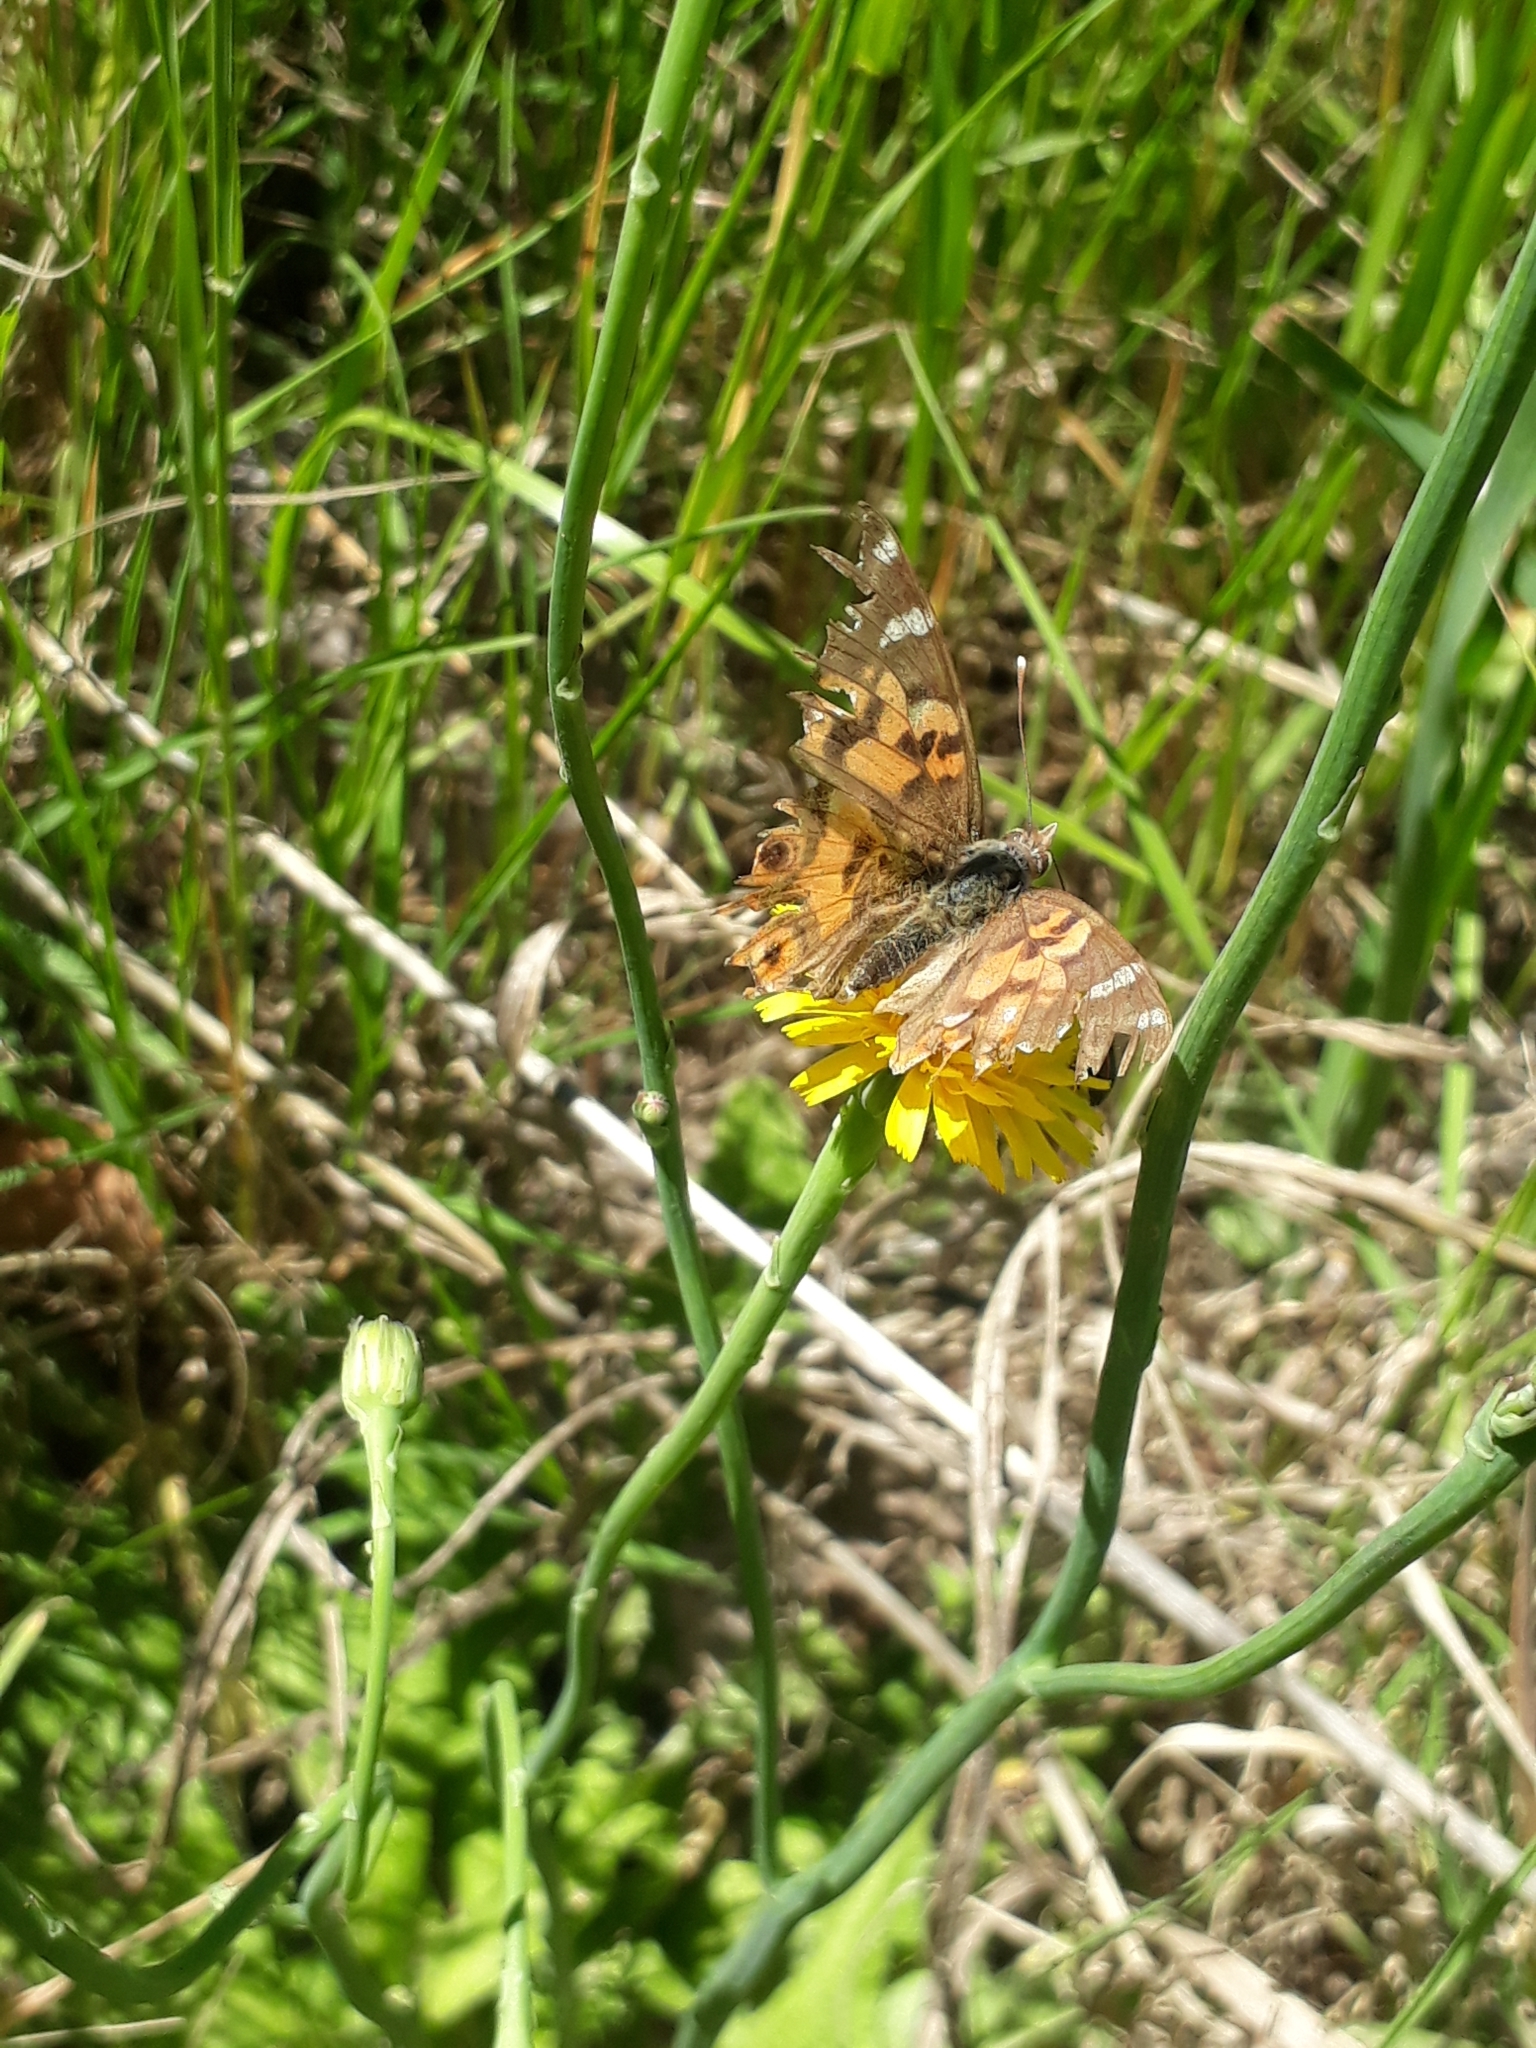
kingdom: Animalia
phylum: Arthropoda
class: Insecta
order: Lepidoptera
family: Nymphalidae
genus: Vanessa
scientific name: Vanessa braziliensis
